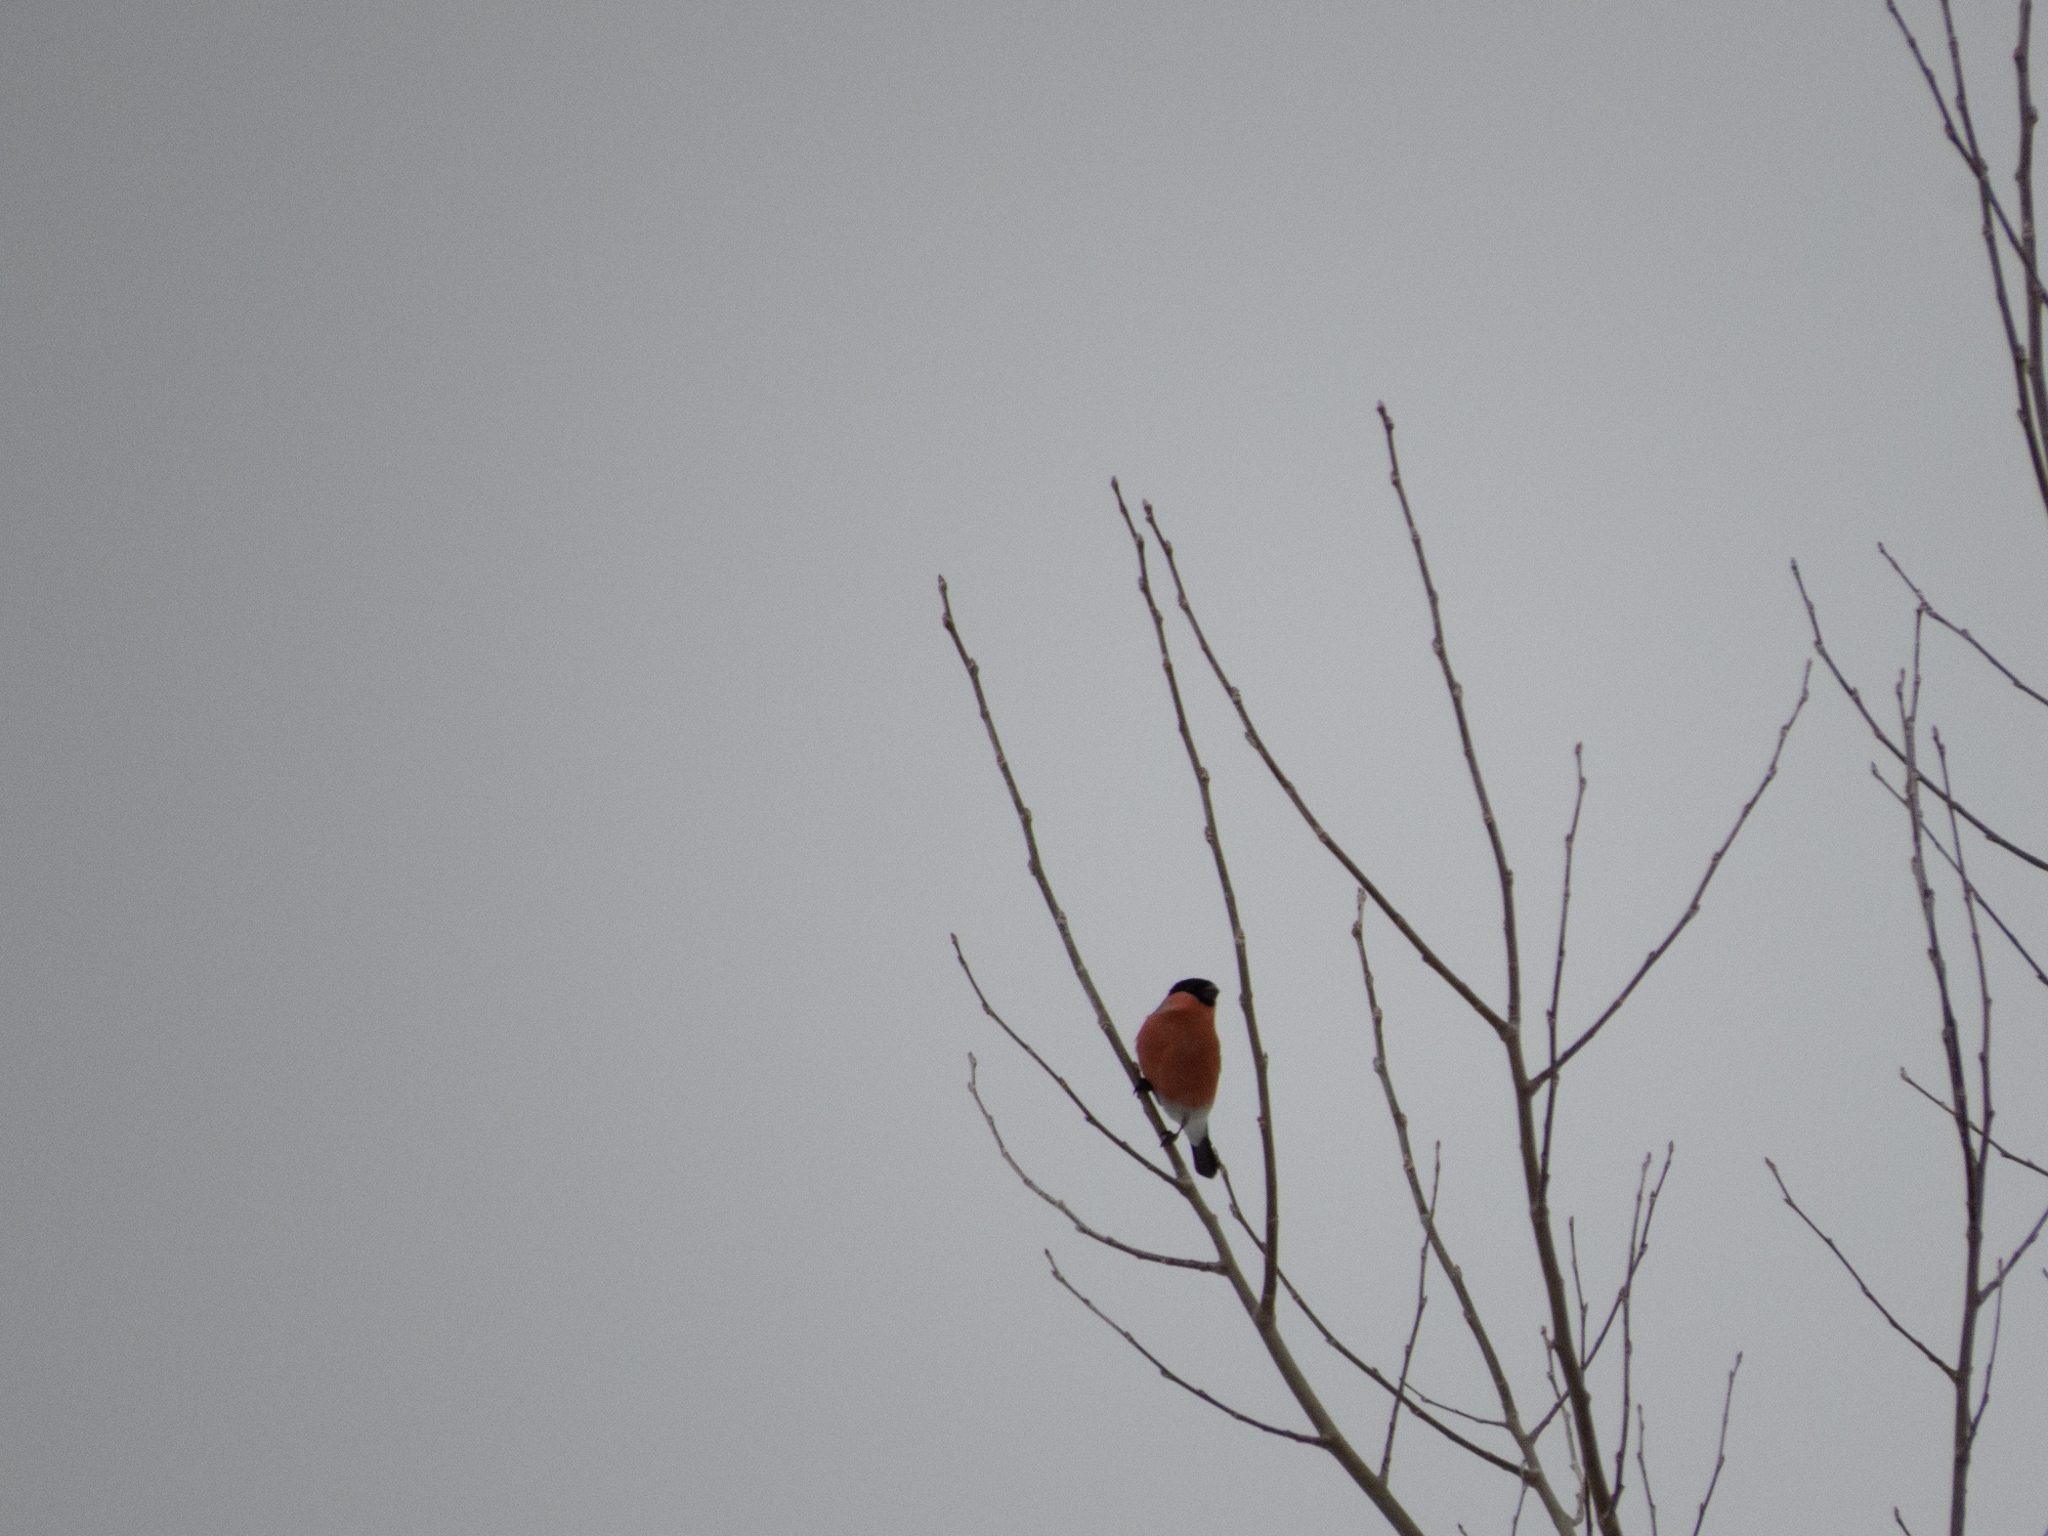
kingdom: Animalia
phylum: Chordata
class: Aves
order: Passeriformes
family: Fringillidae
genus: Pyrrhula
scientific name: Pyrrhula pyrrhula
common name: Eurasian bullfinch
